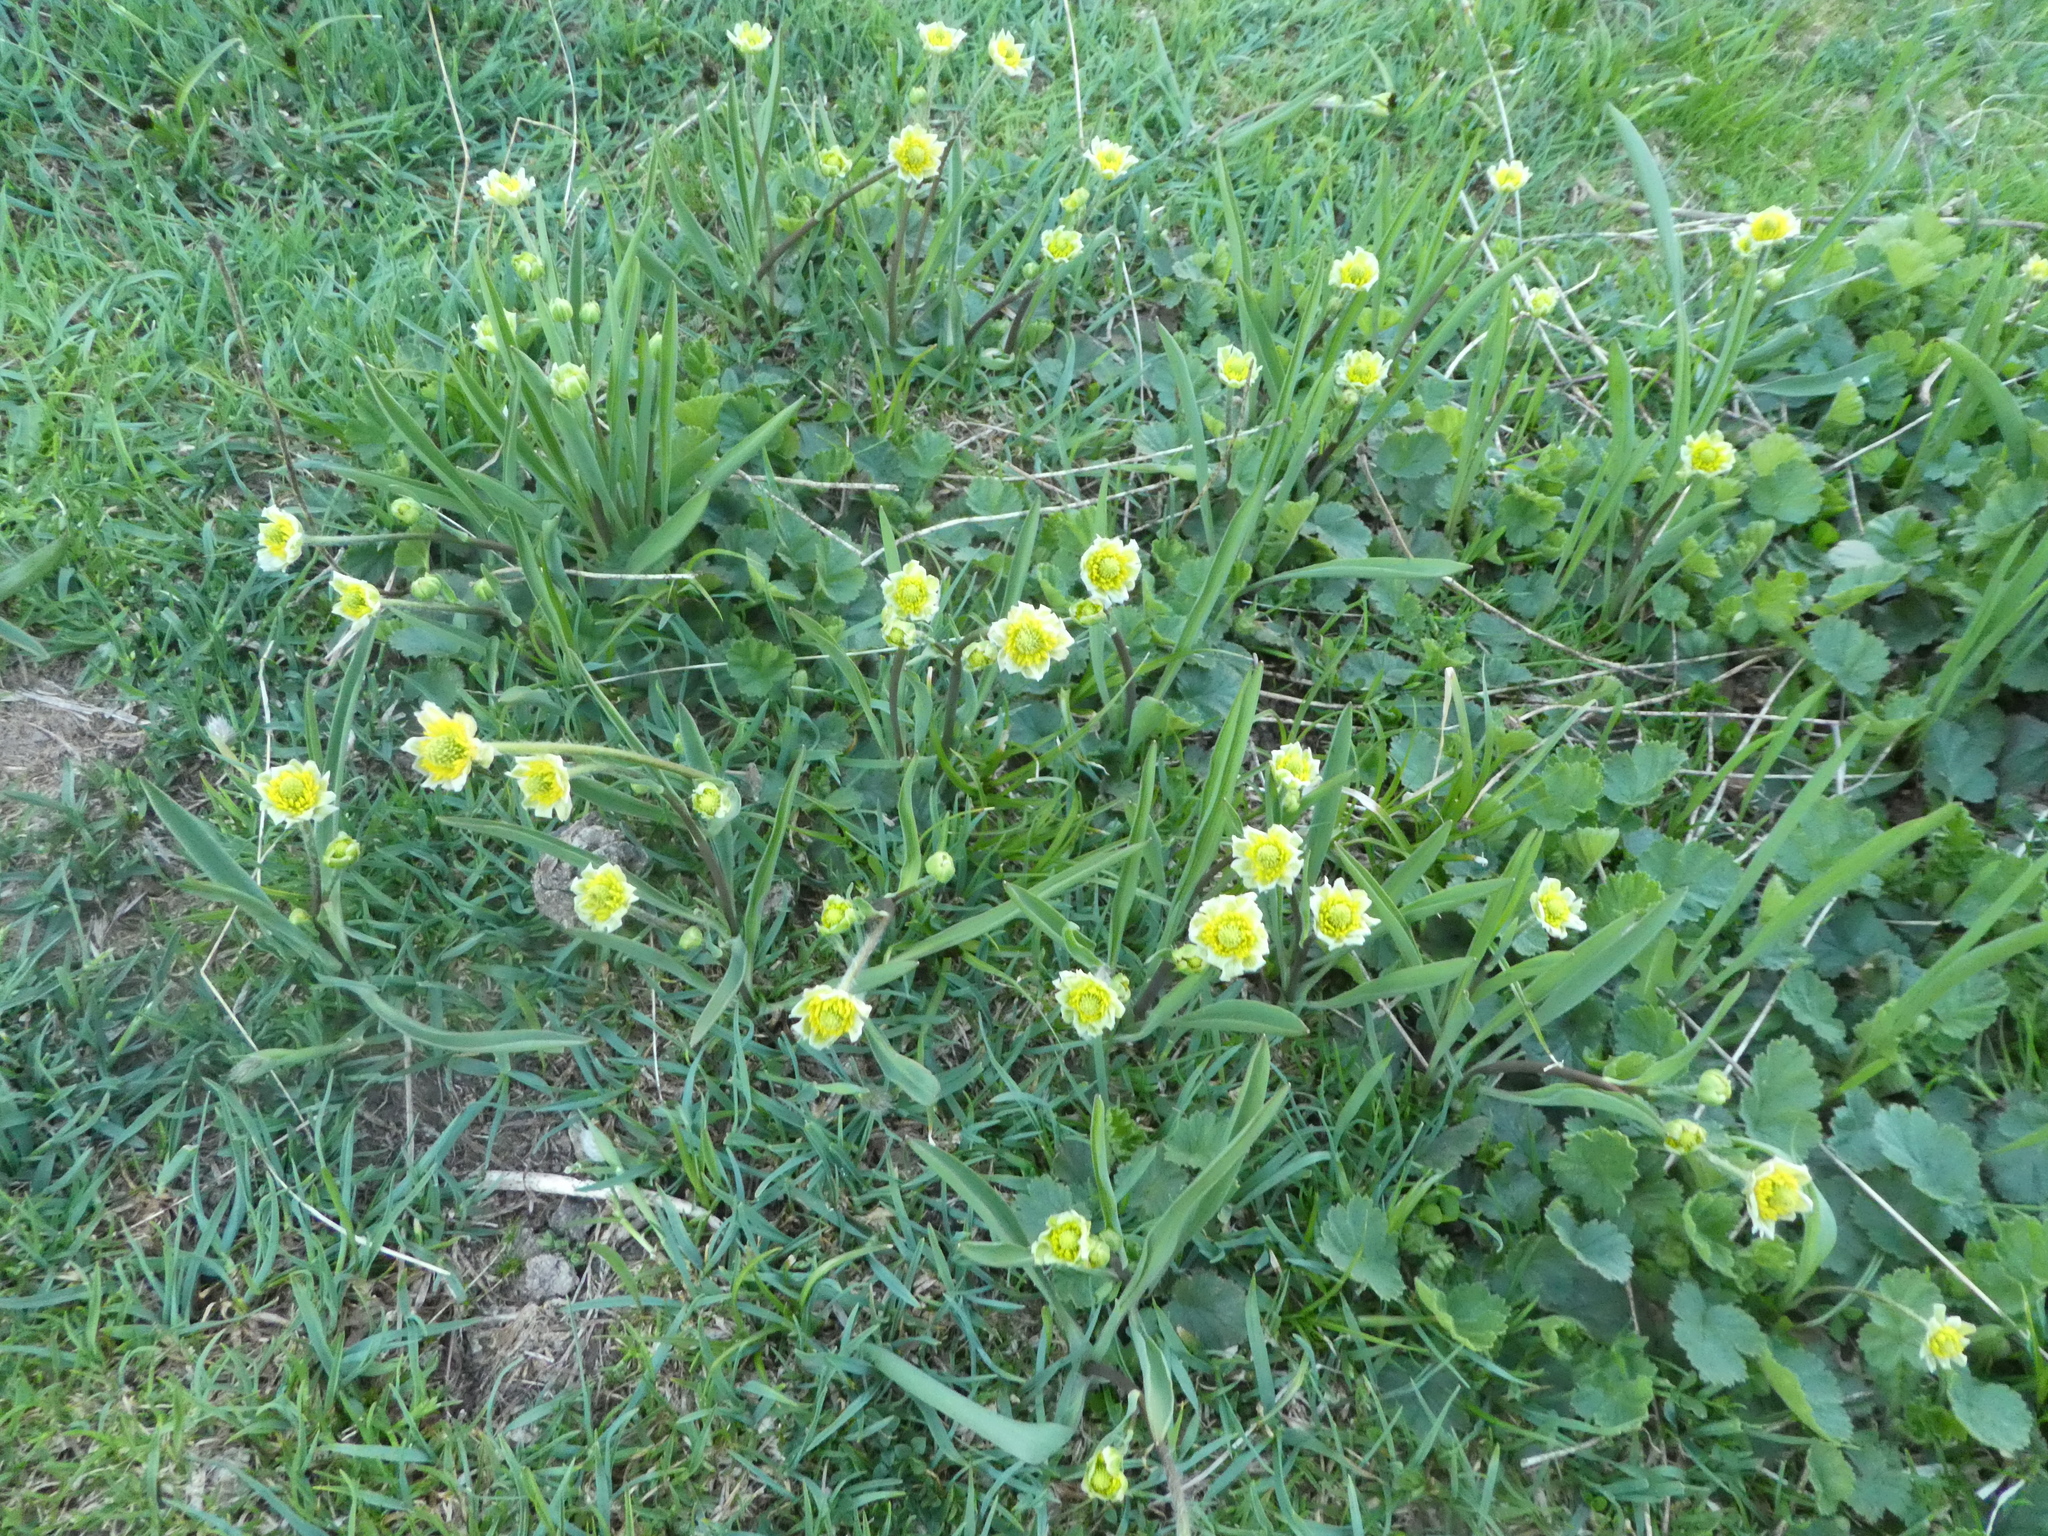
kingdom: Plantae
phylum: Tracheophyta
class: Magnoliopsida
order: Ranunculales
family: Ranunculaceae
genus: Ranunculus
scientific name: Ranunculus kuepferi
